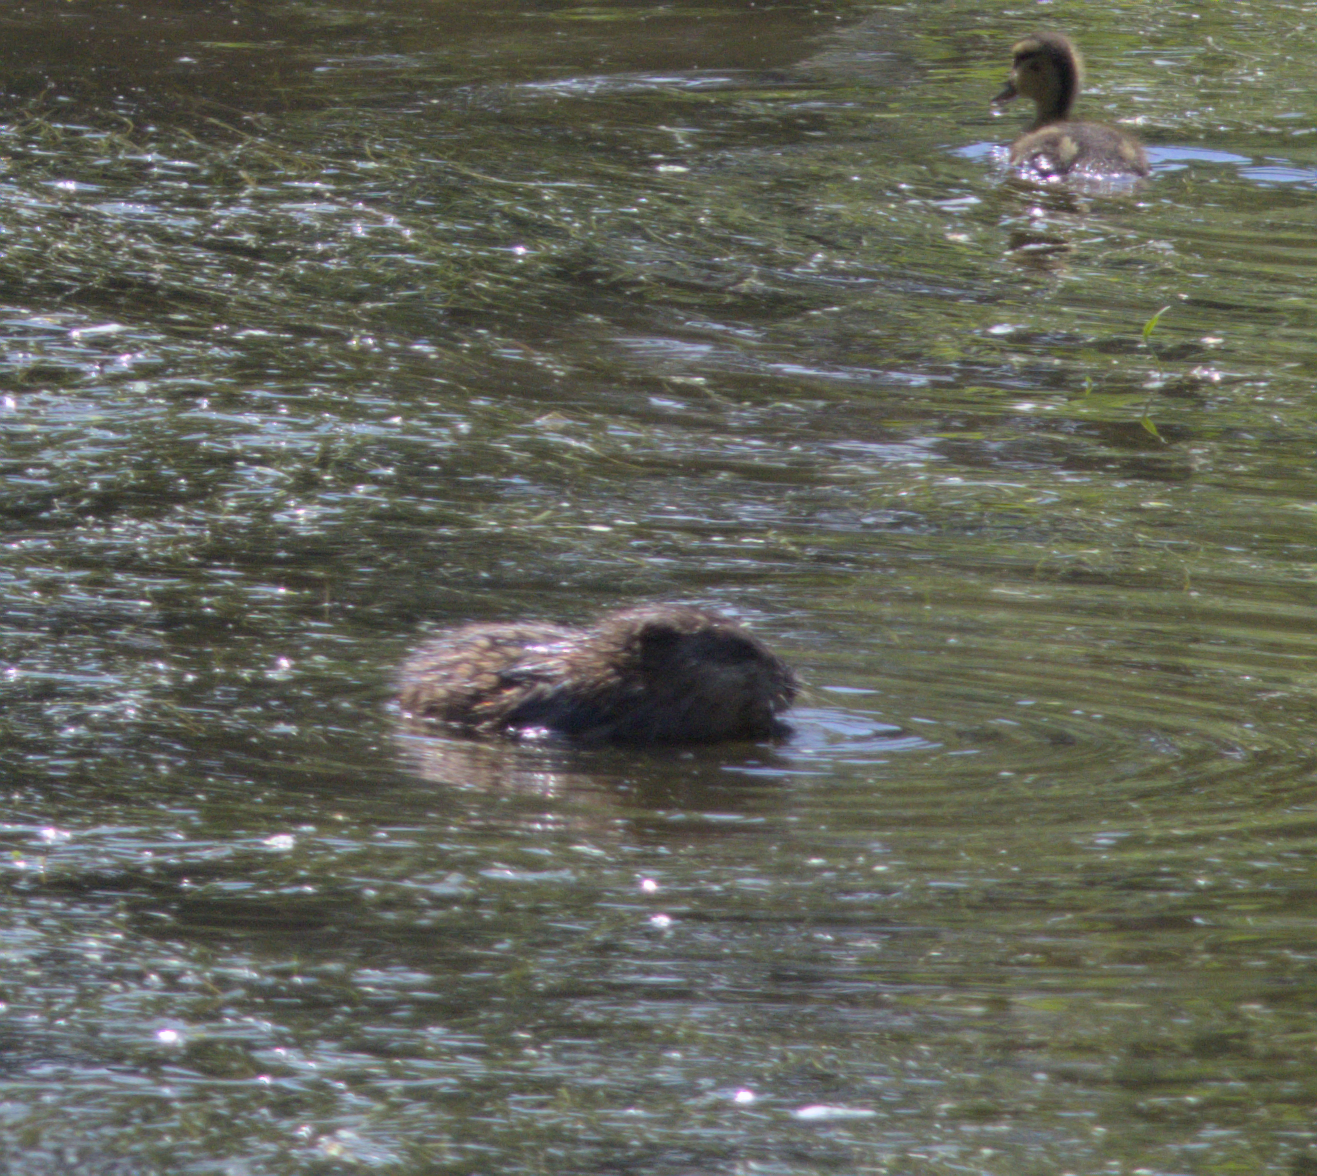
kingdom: Animalia
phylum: Chordata
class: Mammalia
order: Rodentia
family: Cricetidae
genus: Ondatra
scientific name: Ondatra zibethicus
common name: Muskrat
